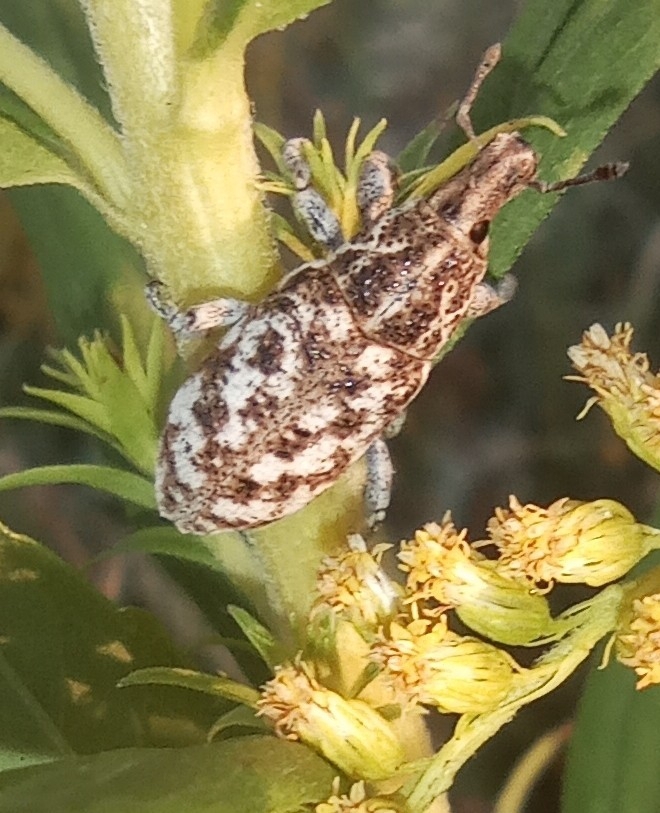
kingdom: Animalia
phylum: Arthropoda
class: Insecta
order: Coleoptera
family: Curculionidae
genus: Cyphocleonus
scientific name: Cyphocleonus dealbatus
